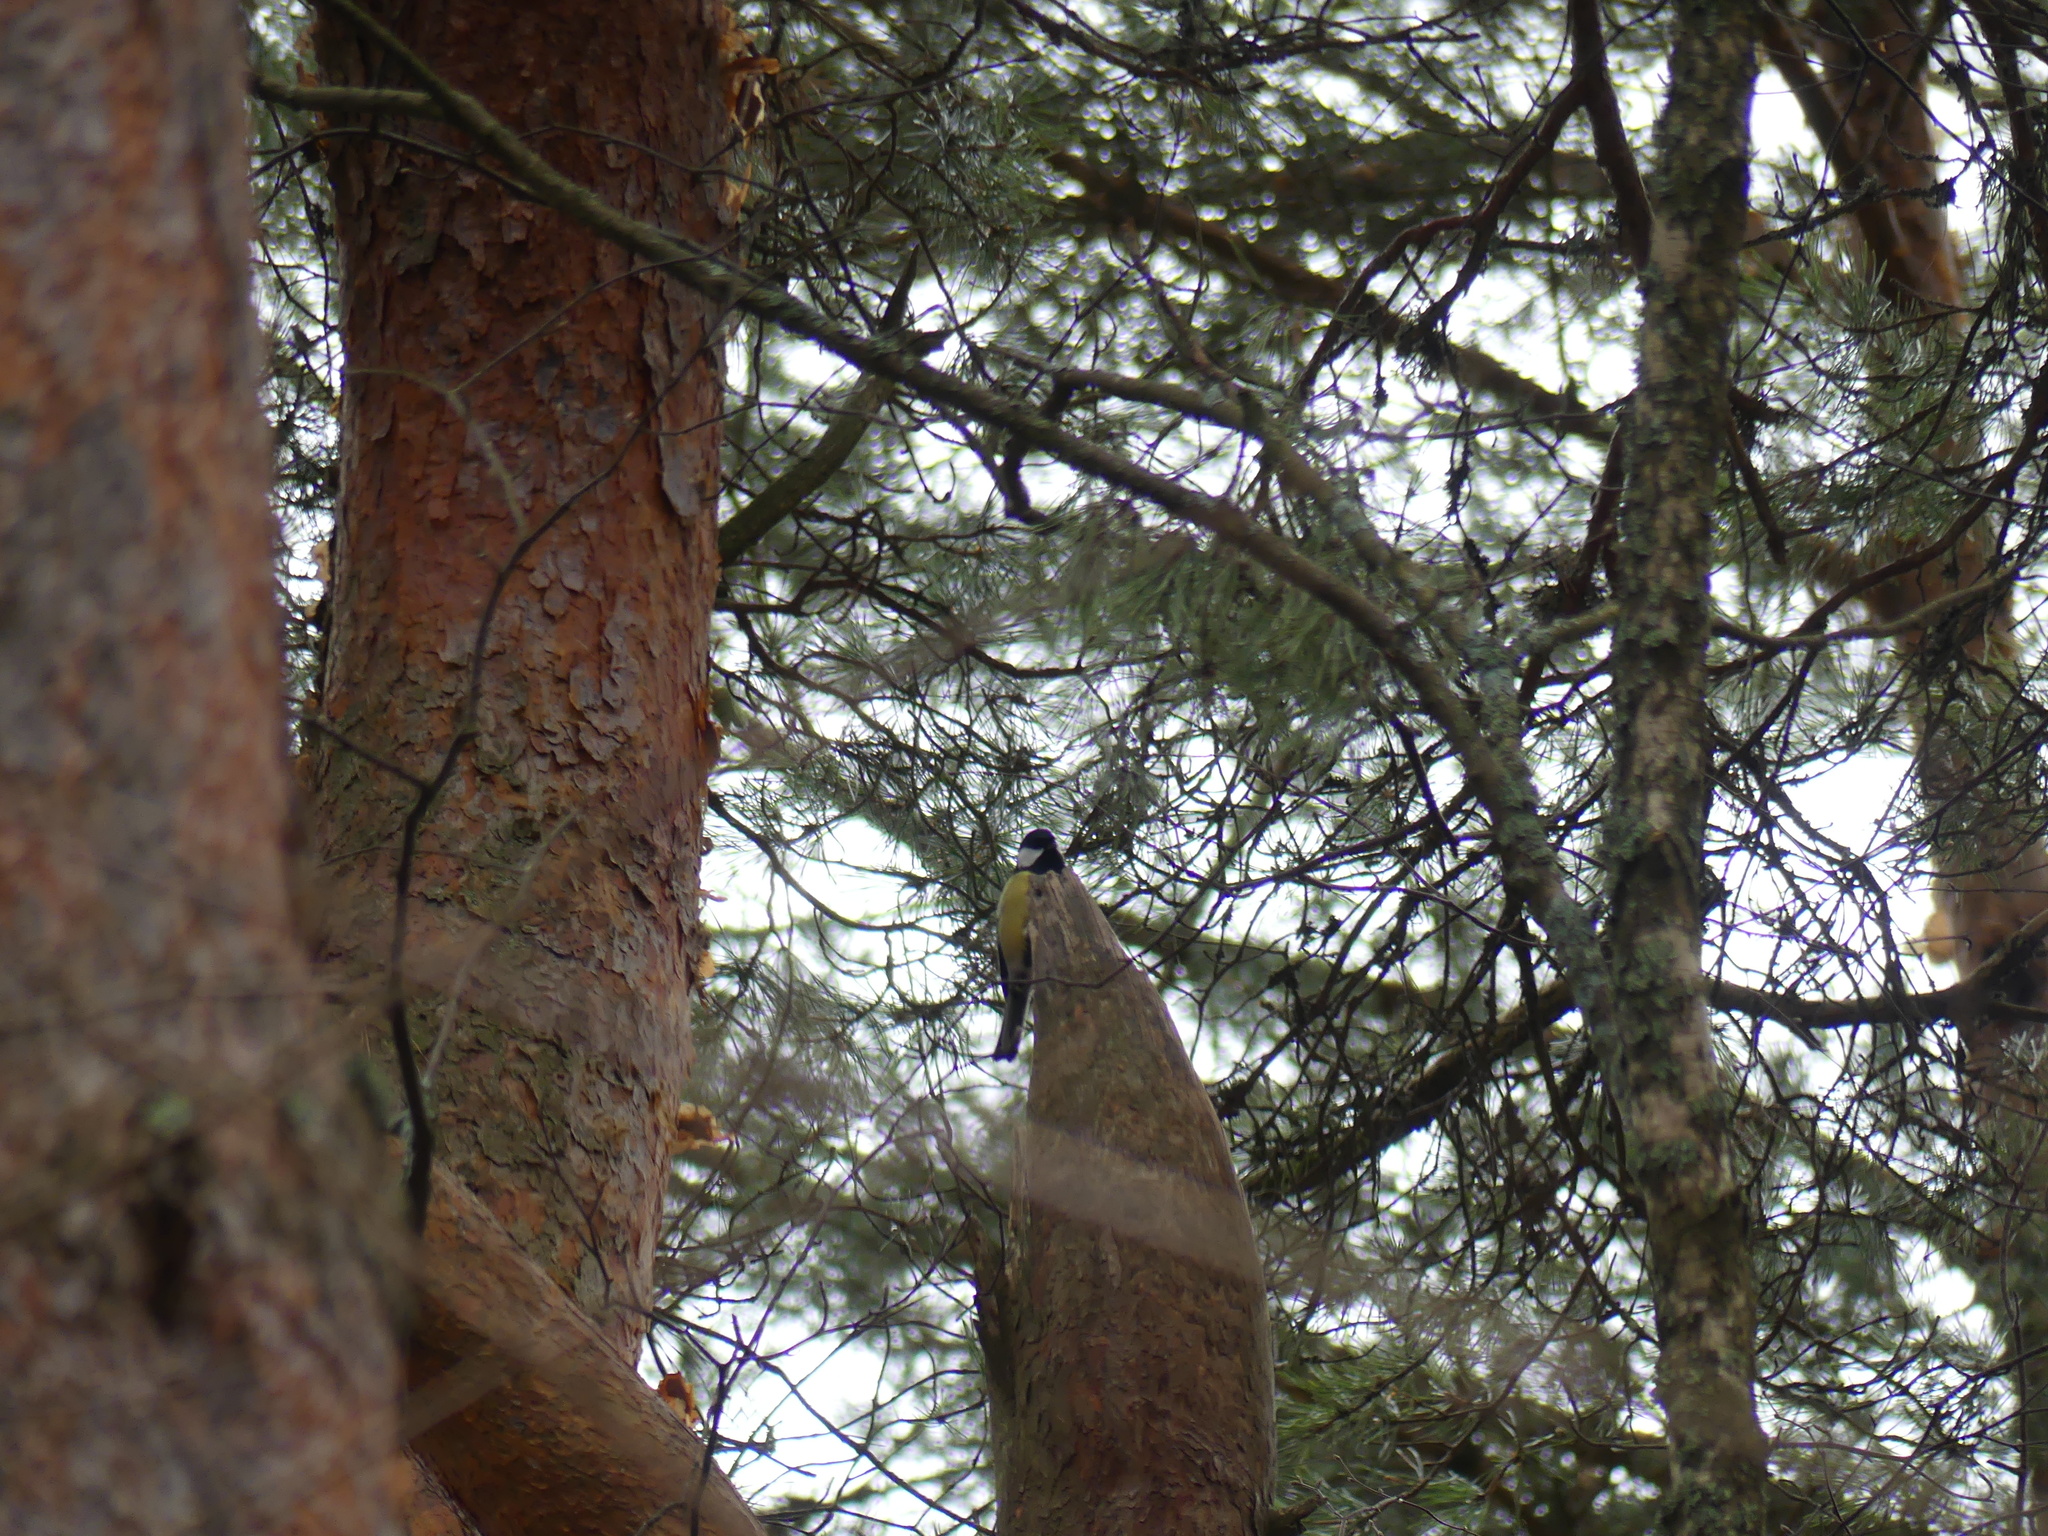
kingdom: Animalia
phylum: Chordata
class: Aves
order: Passeriformes
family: Paridae
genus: Parus
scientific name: Parus major
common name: Great tit
